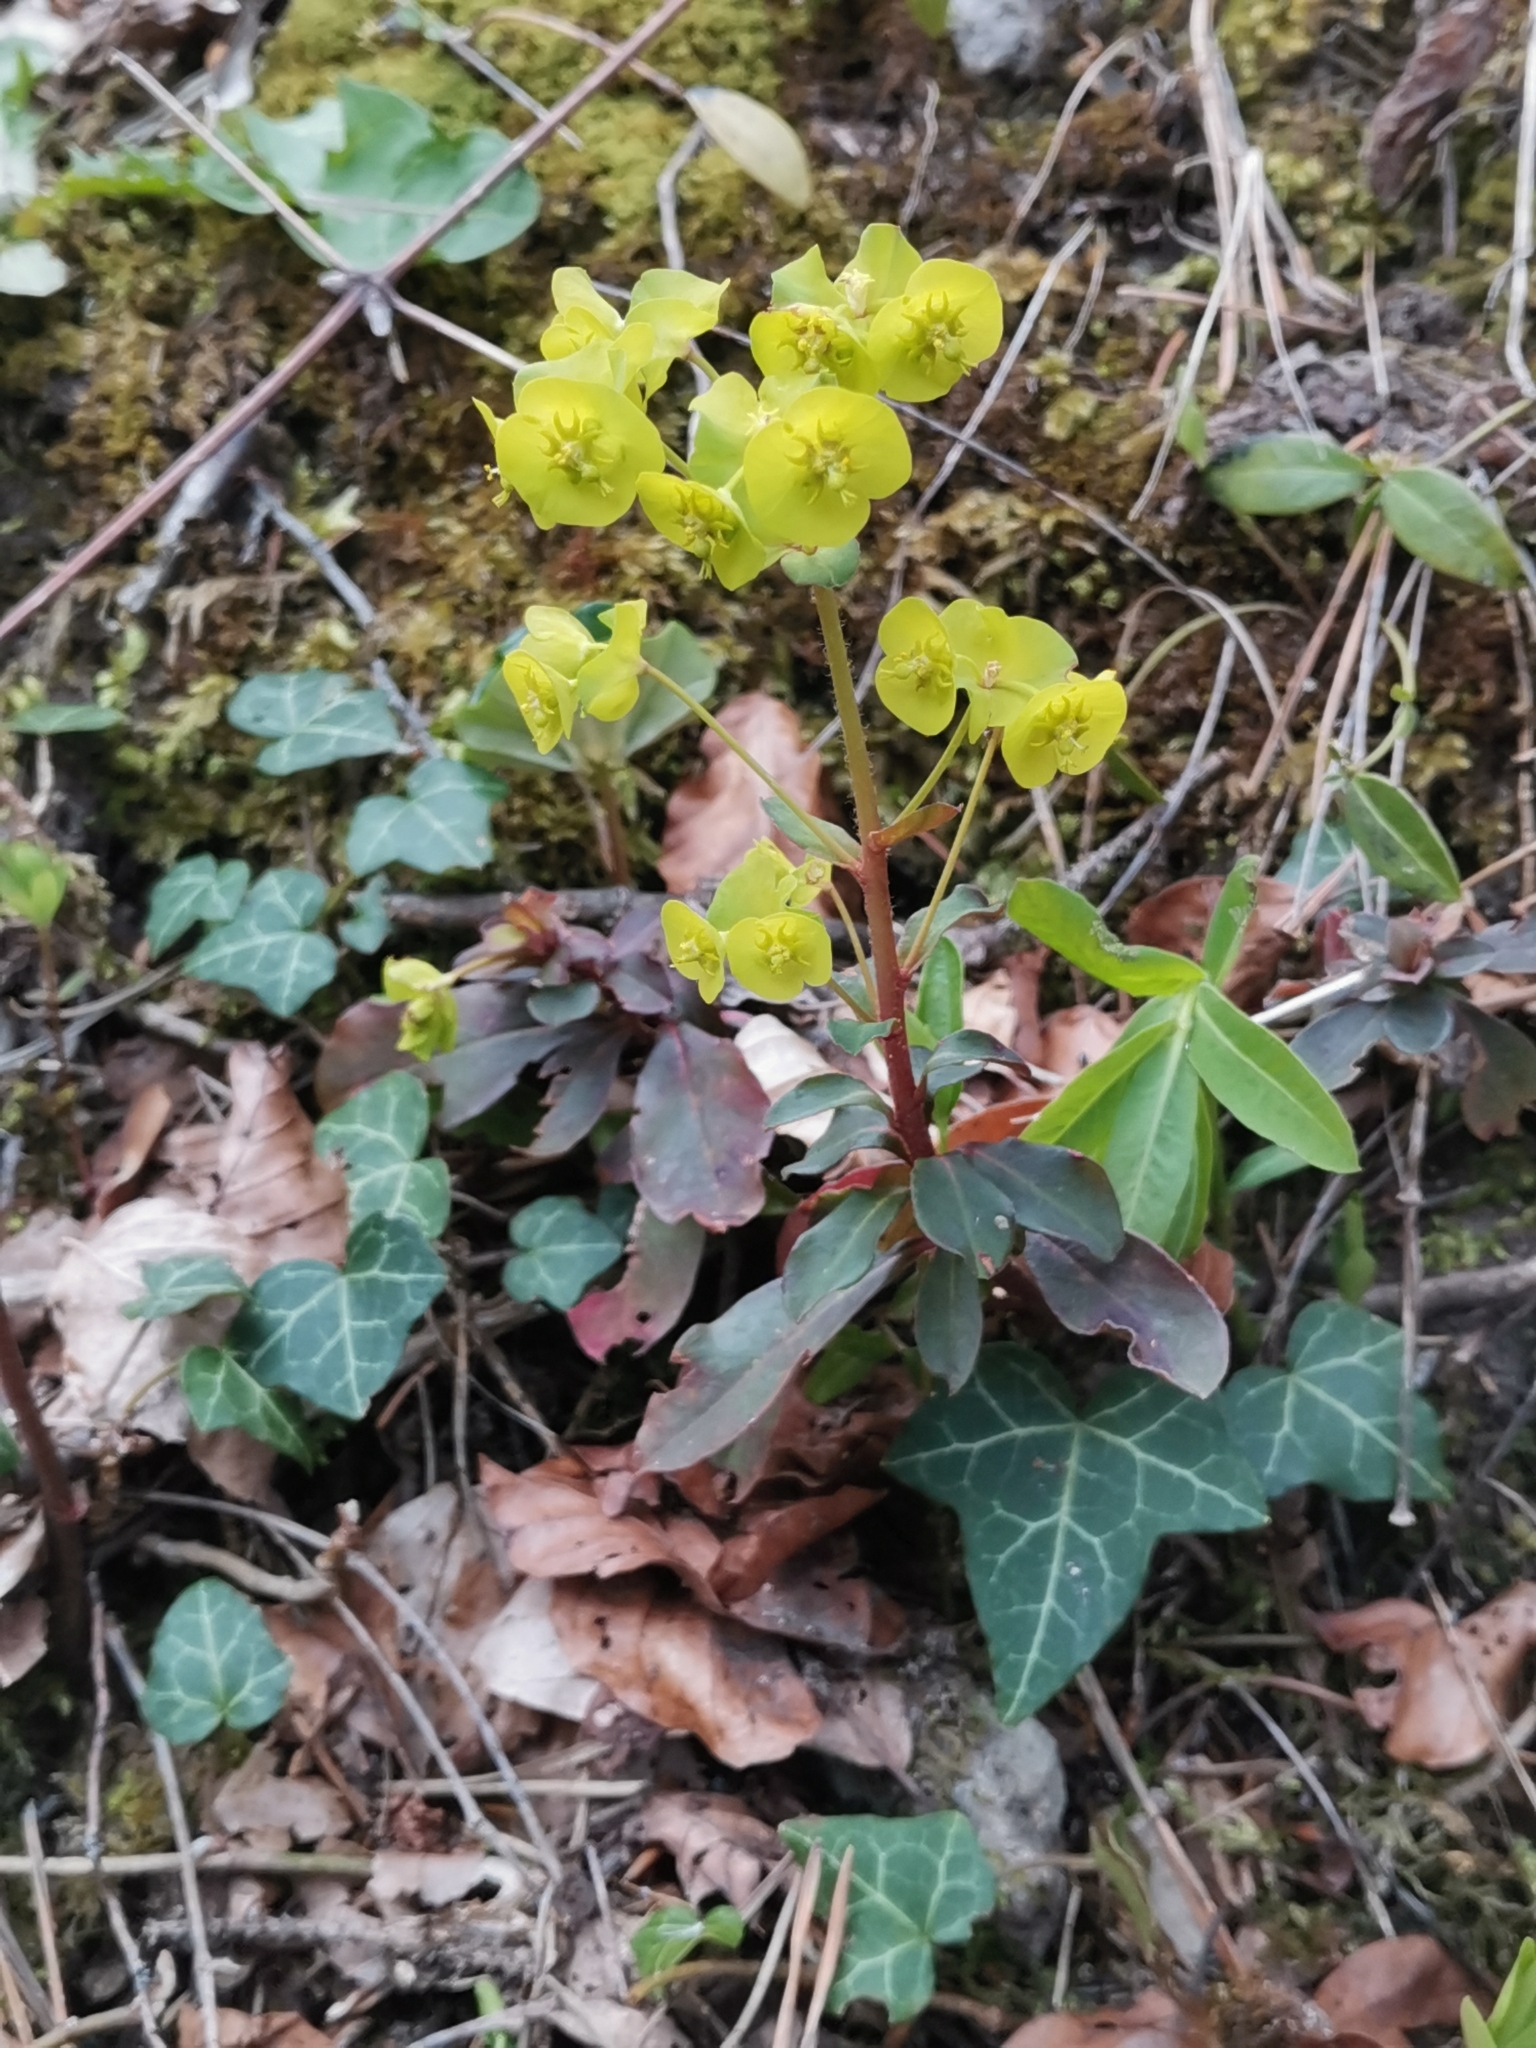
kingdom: Plantae
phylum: Tracheophyta
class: Magnoliopsida
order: Malpighiales
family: Euphorbiaceae
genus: Euphorbia
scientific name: Euphorbia amygdaloides
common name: Wood spurge
